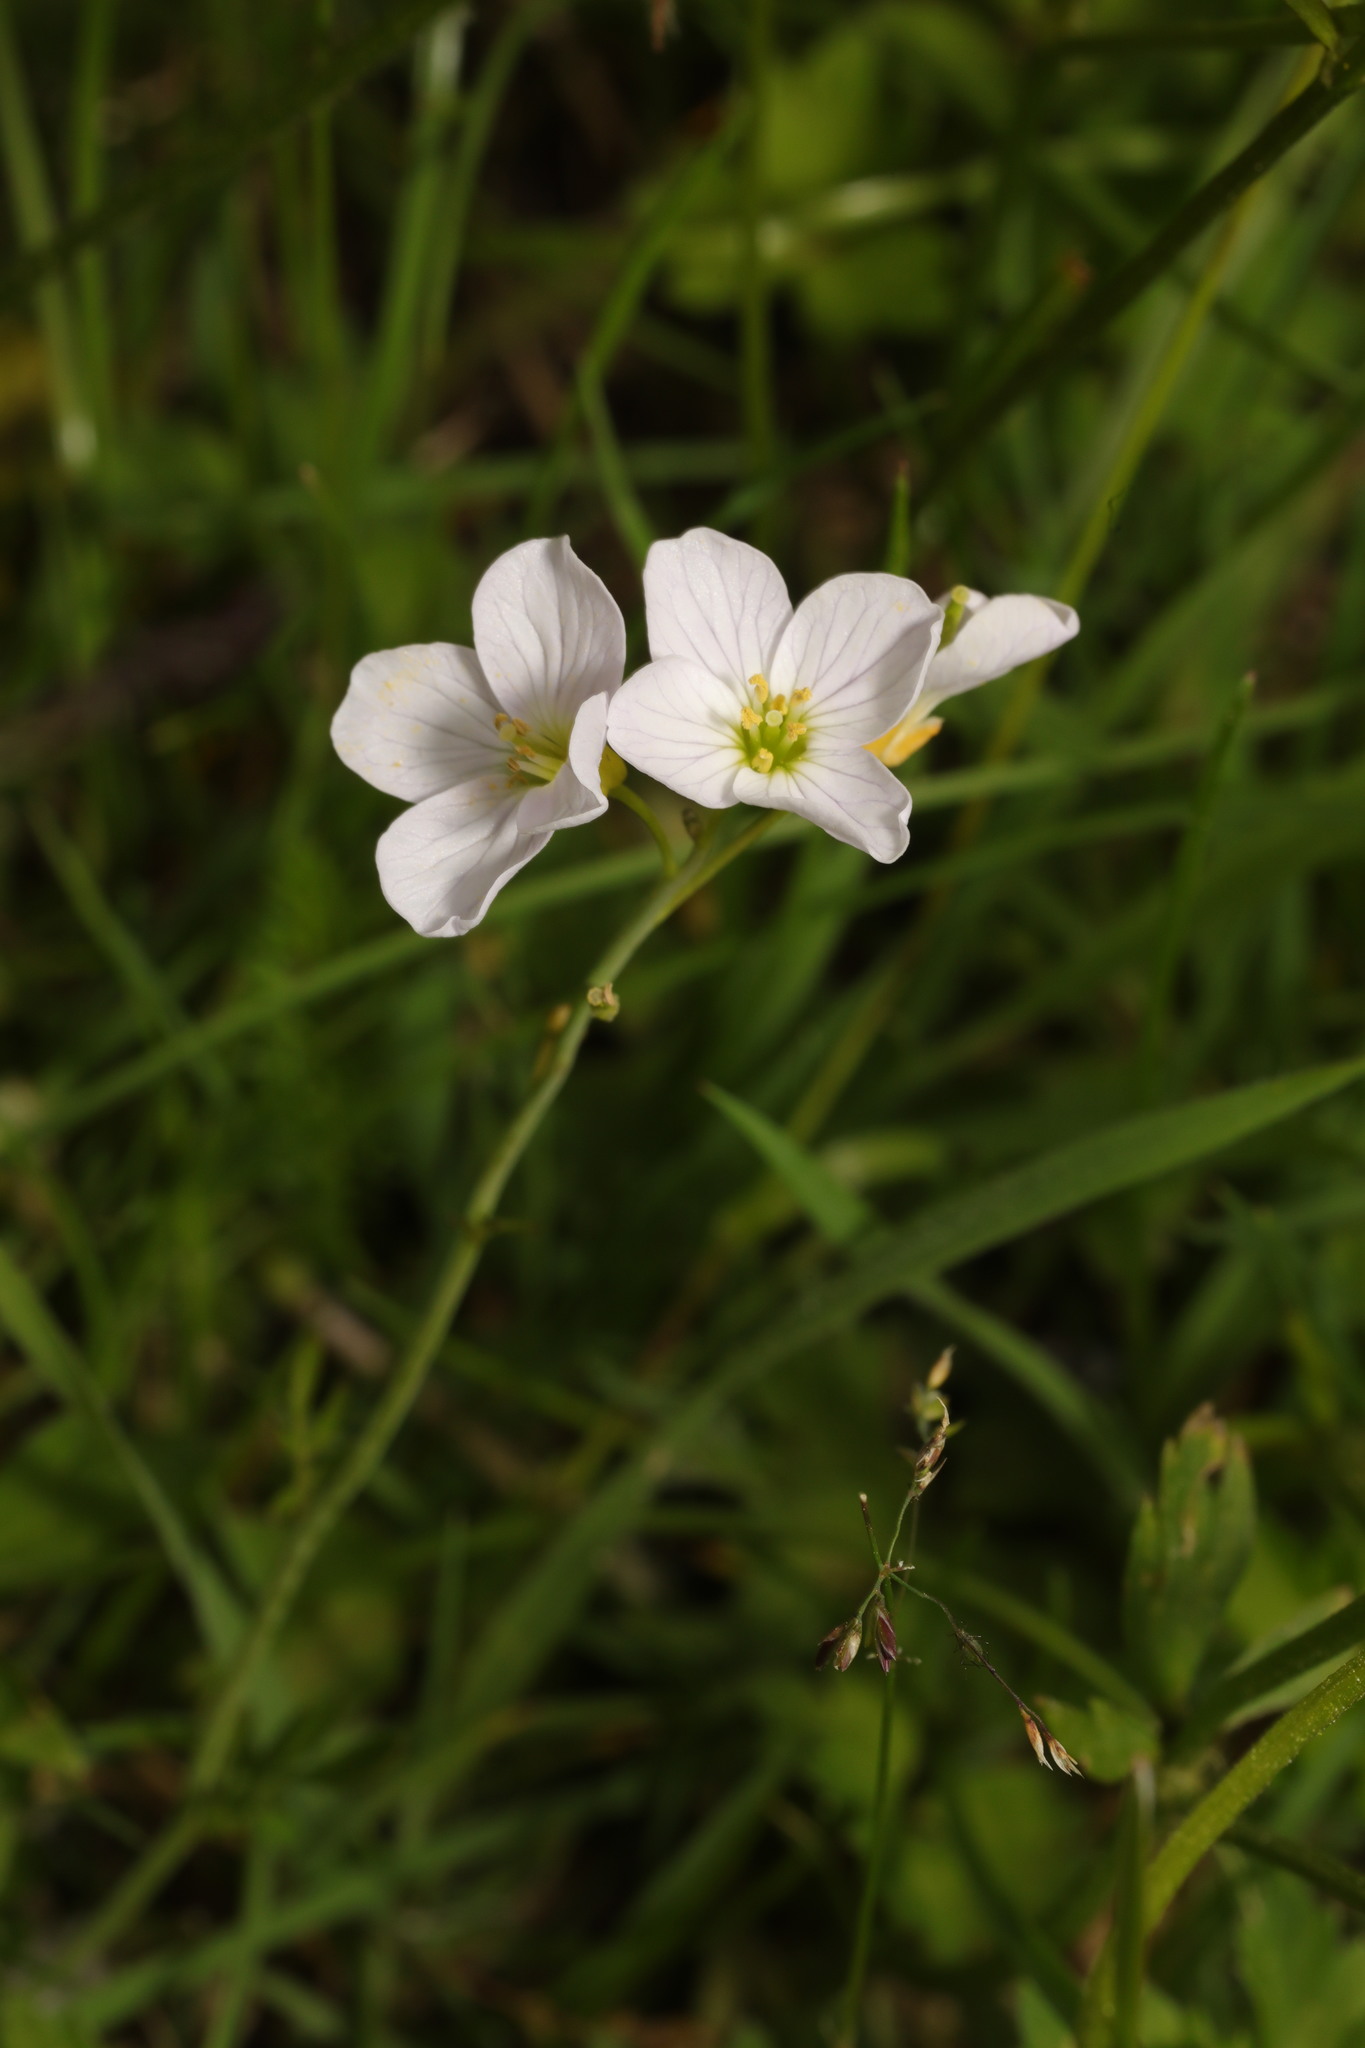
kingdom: Plantae
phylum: Tracheophyta
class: Magnoliopsida
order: Brassicales
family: Brassicaceae
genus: Cardamine
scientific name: Cardamine pratensis
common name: Cuckoo flower
